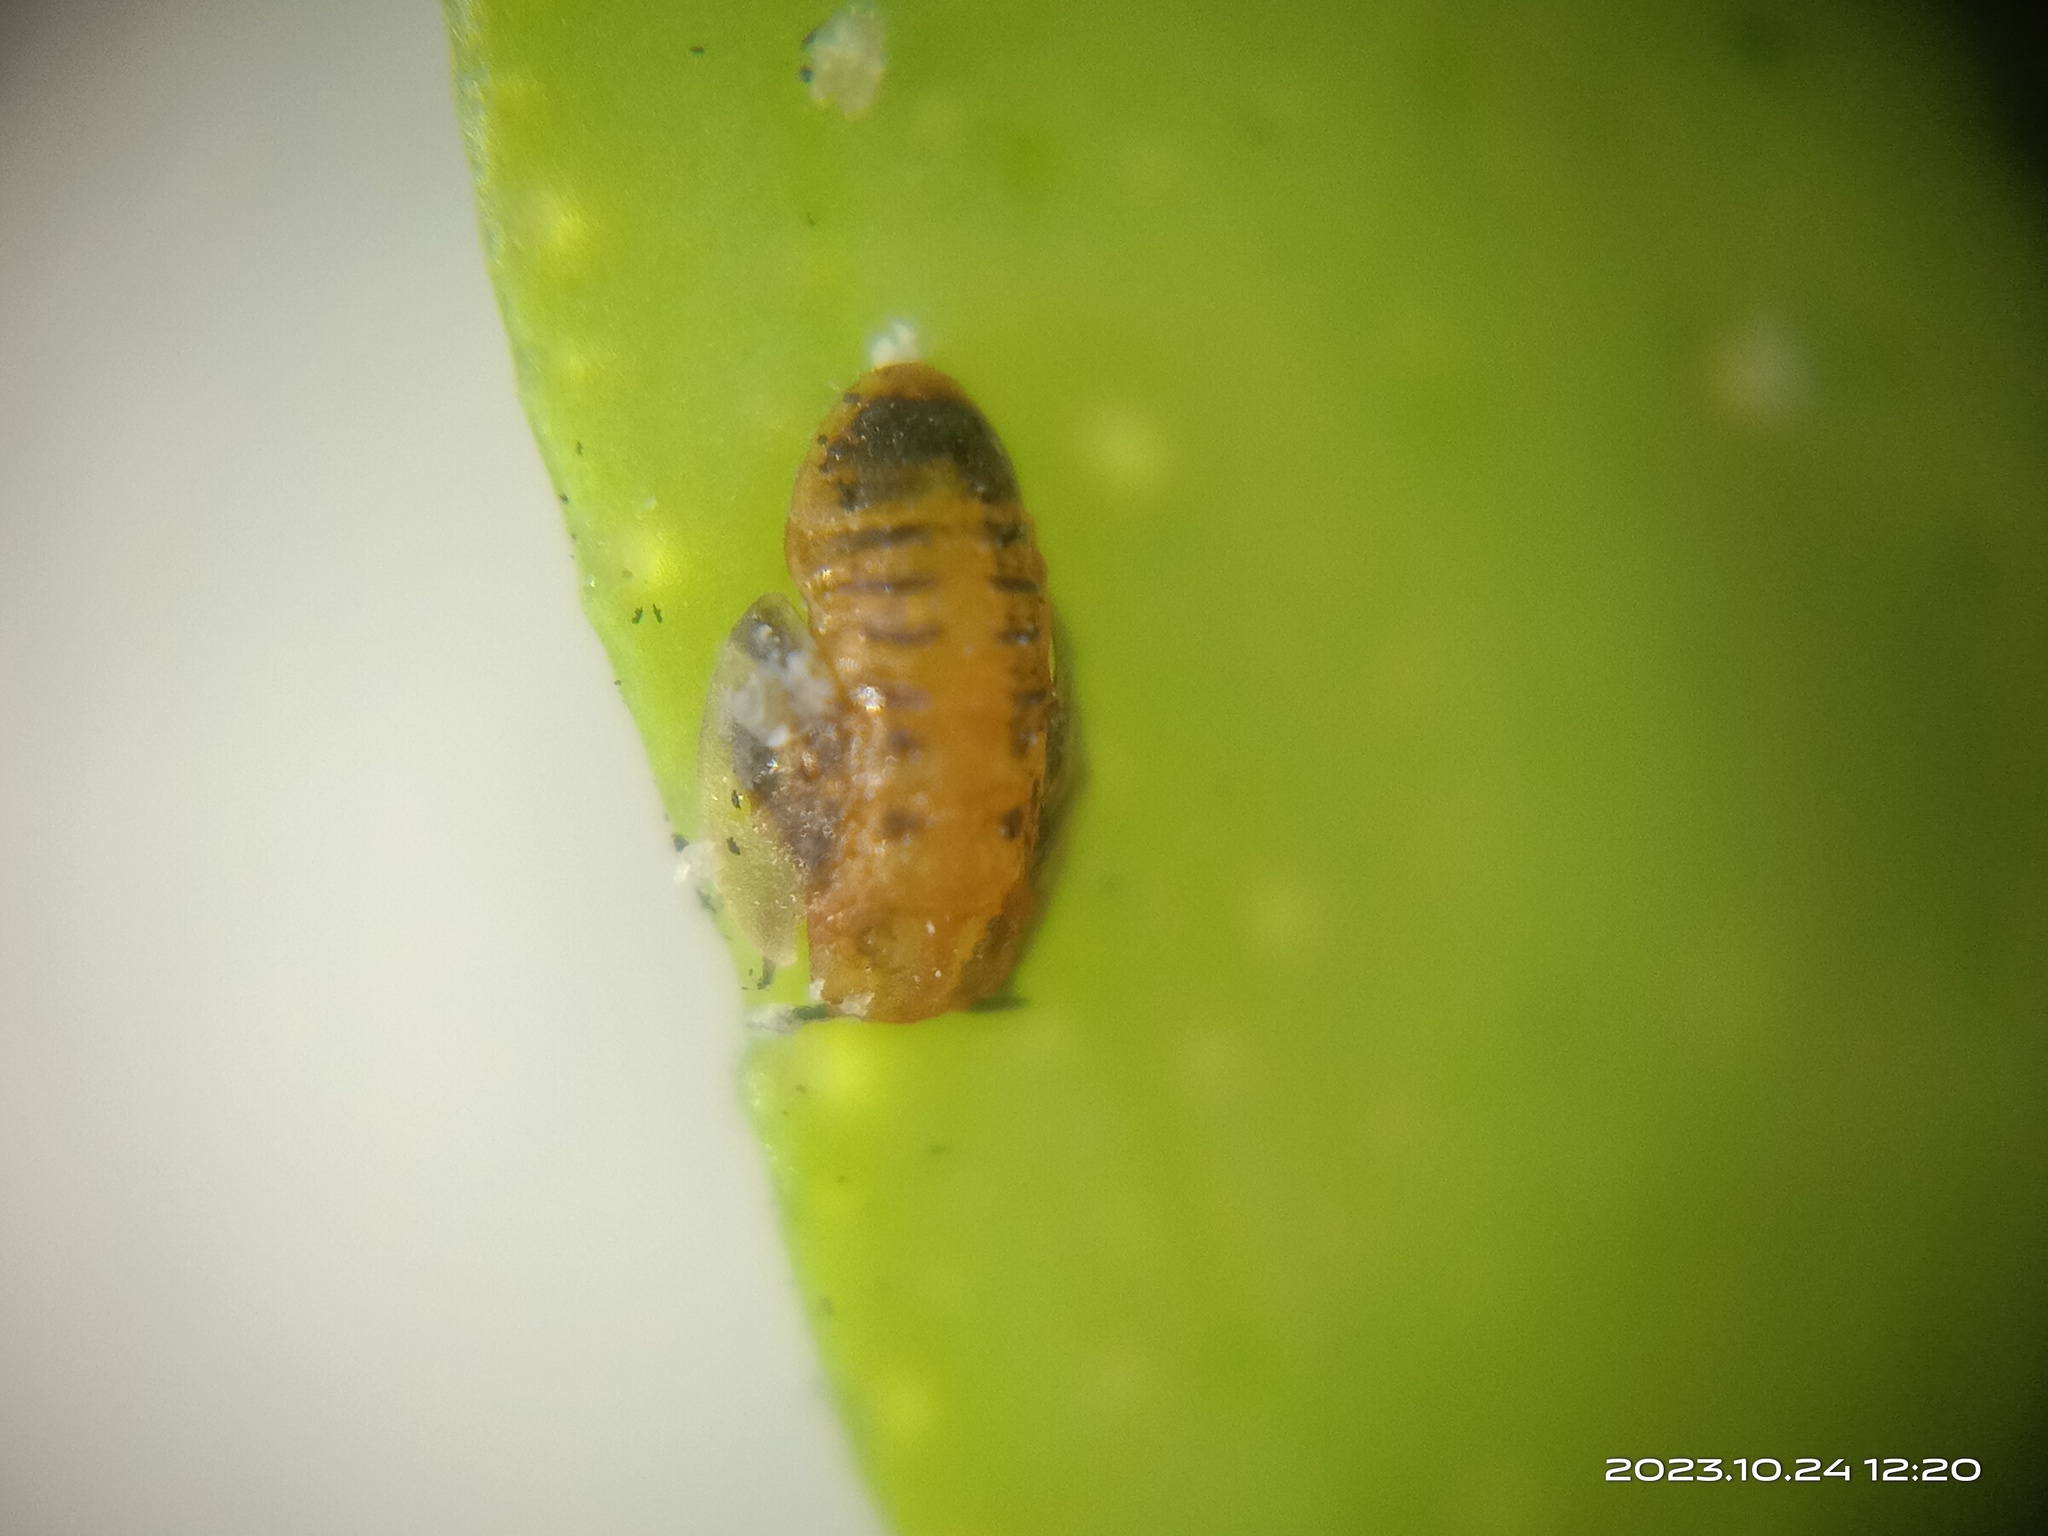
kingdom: Animalia
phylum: Arthropoda
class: Insecta
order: Hemiptera
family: Liviidae
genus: Diaphorina
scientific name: Diaphorina citri
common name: Asian citrus psyllid
